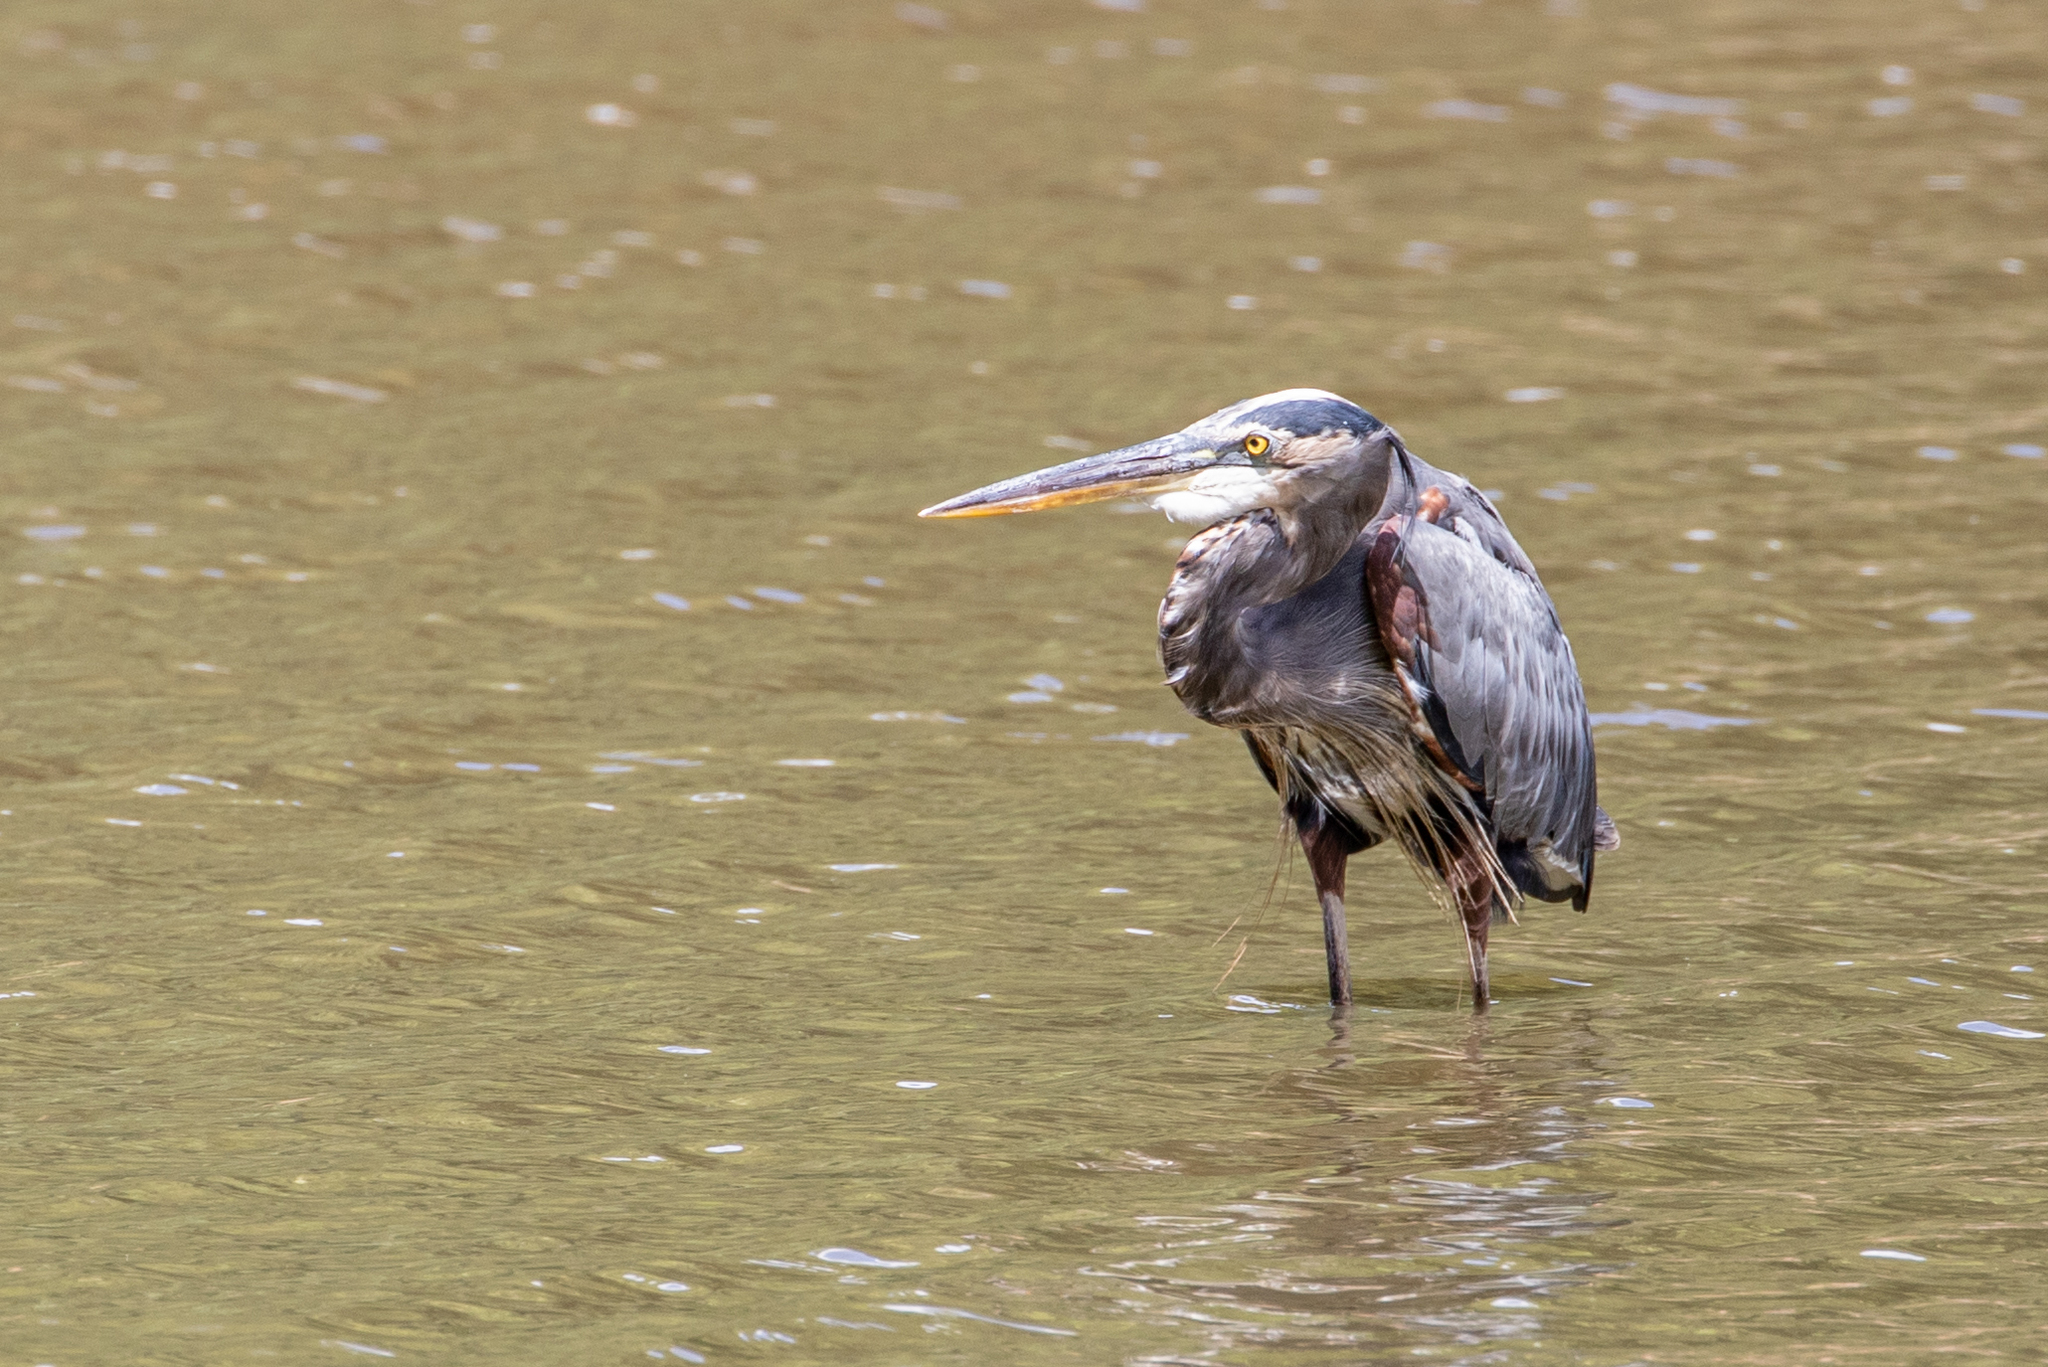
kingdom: Animalia
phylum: Chordata
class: Aves
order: Pelecaniformes
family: Ardeidae
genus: Ardea
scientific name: Ardea herodias
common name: Great blue heron
